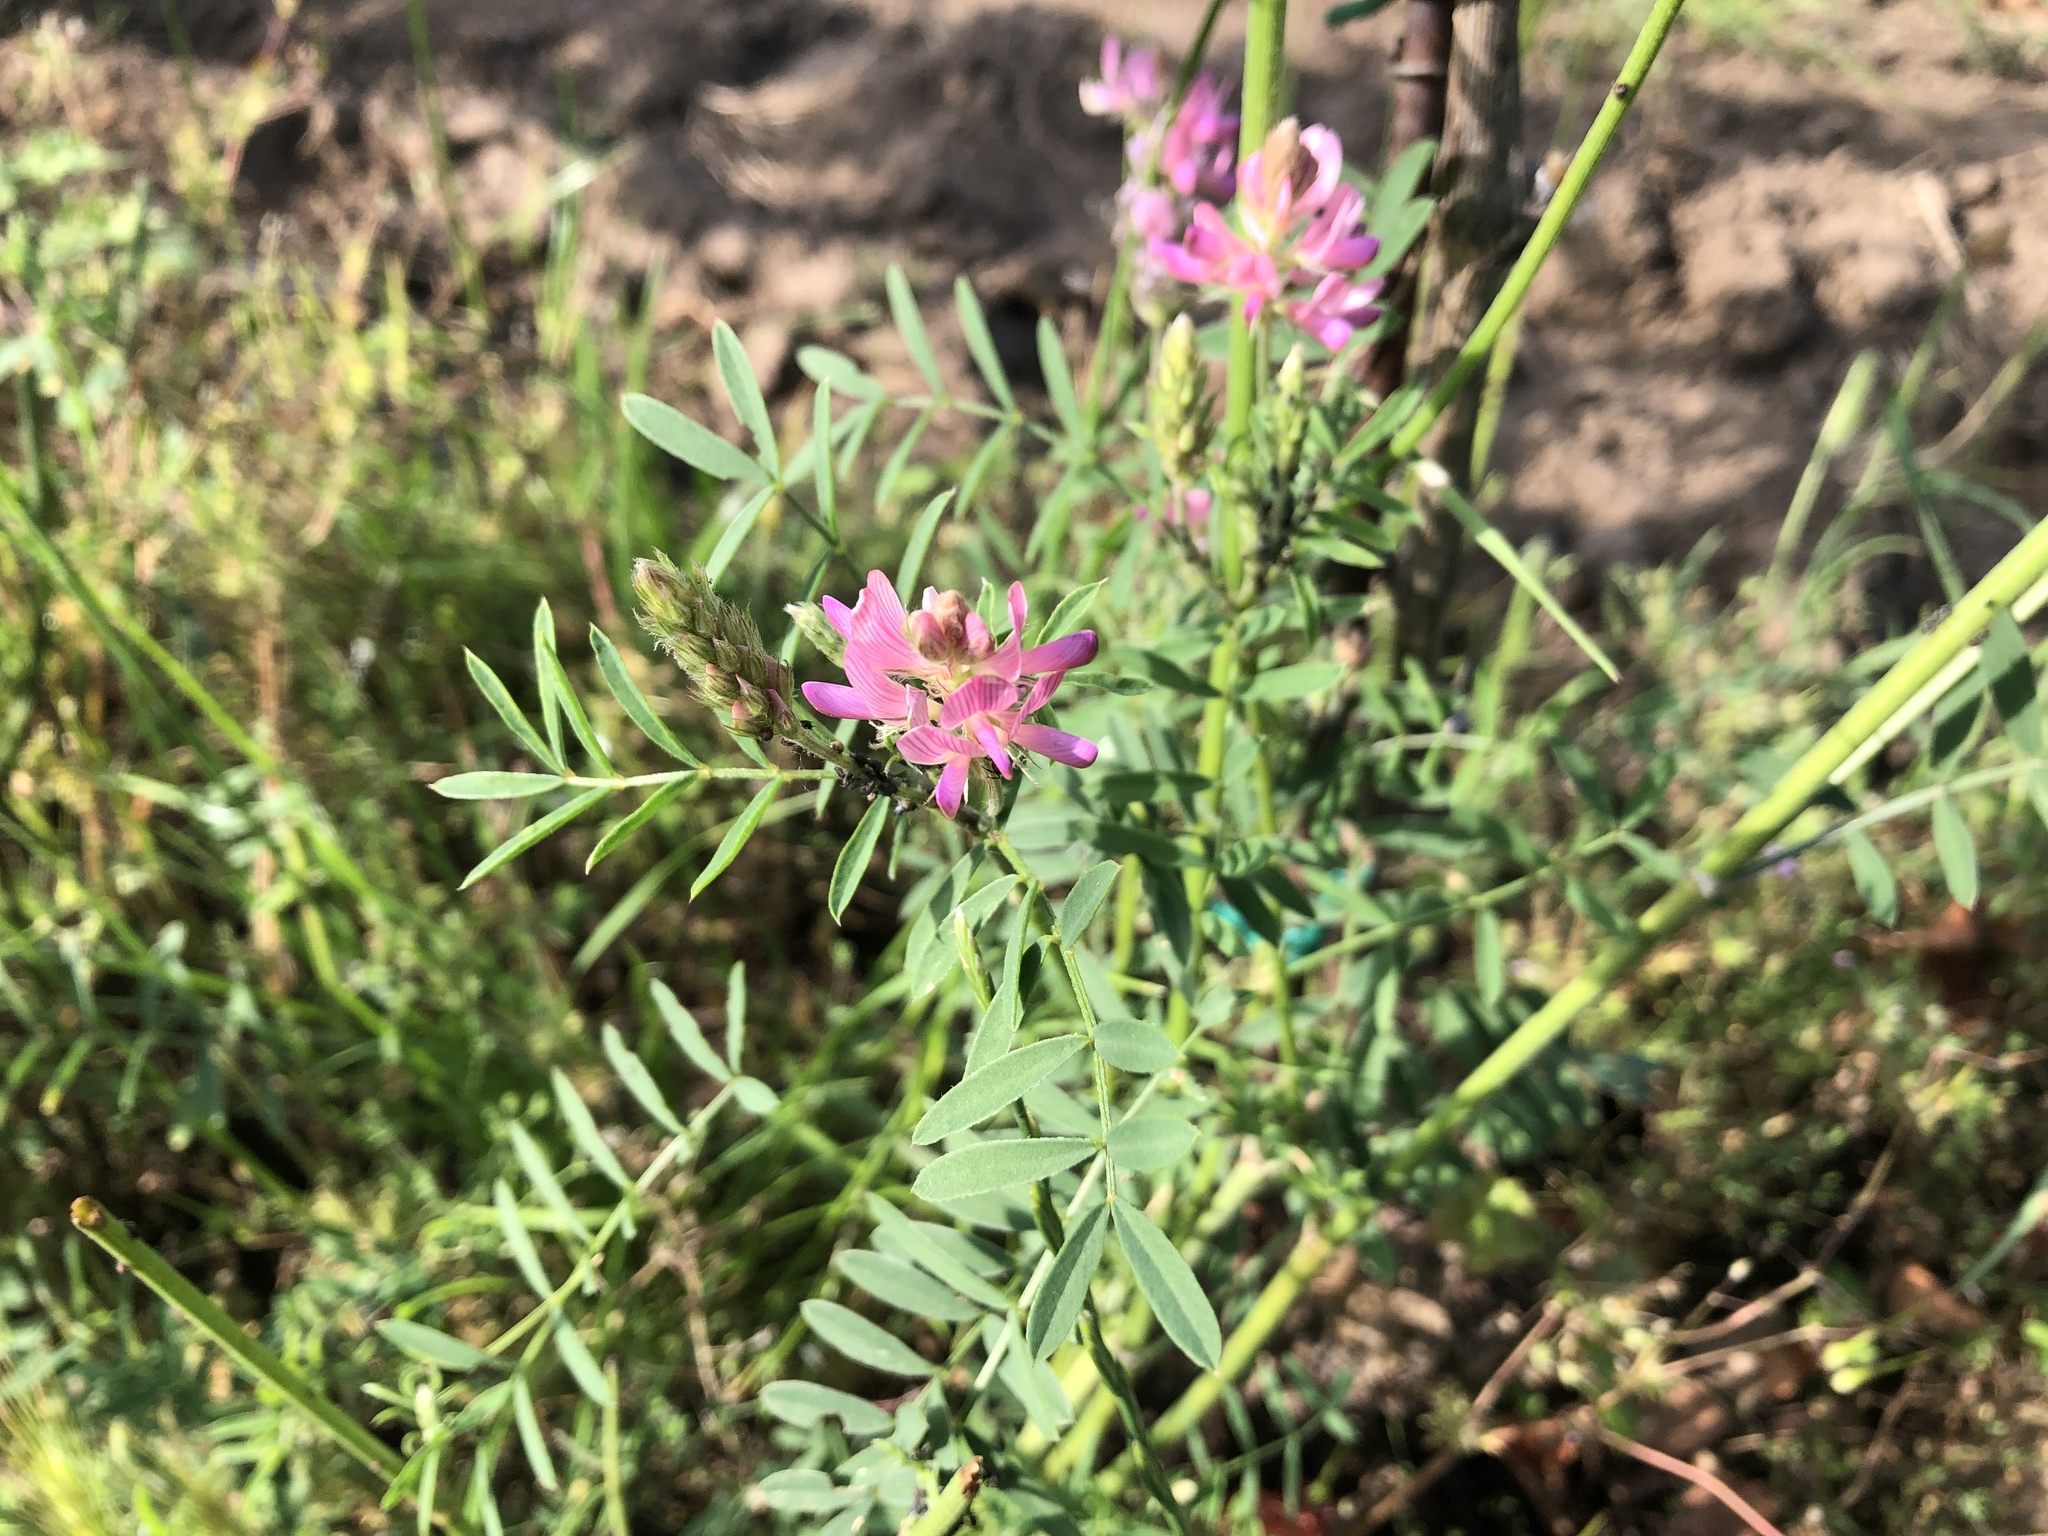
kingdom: Plantae
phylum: Tracheophyta
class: Magnoliopsida
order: Fabales
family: Fabaceae
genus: Onobrychis
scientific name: Onobrychis viciifolia
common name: Sainfoin
